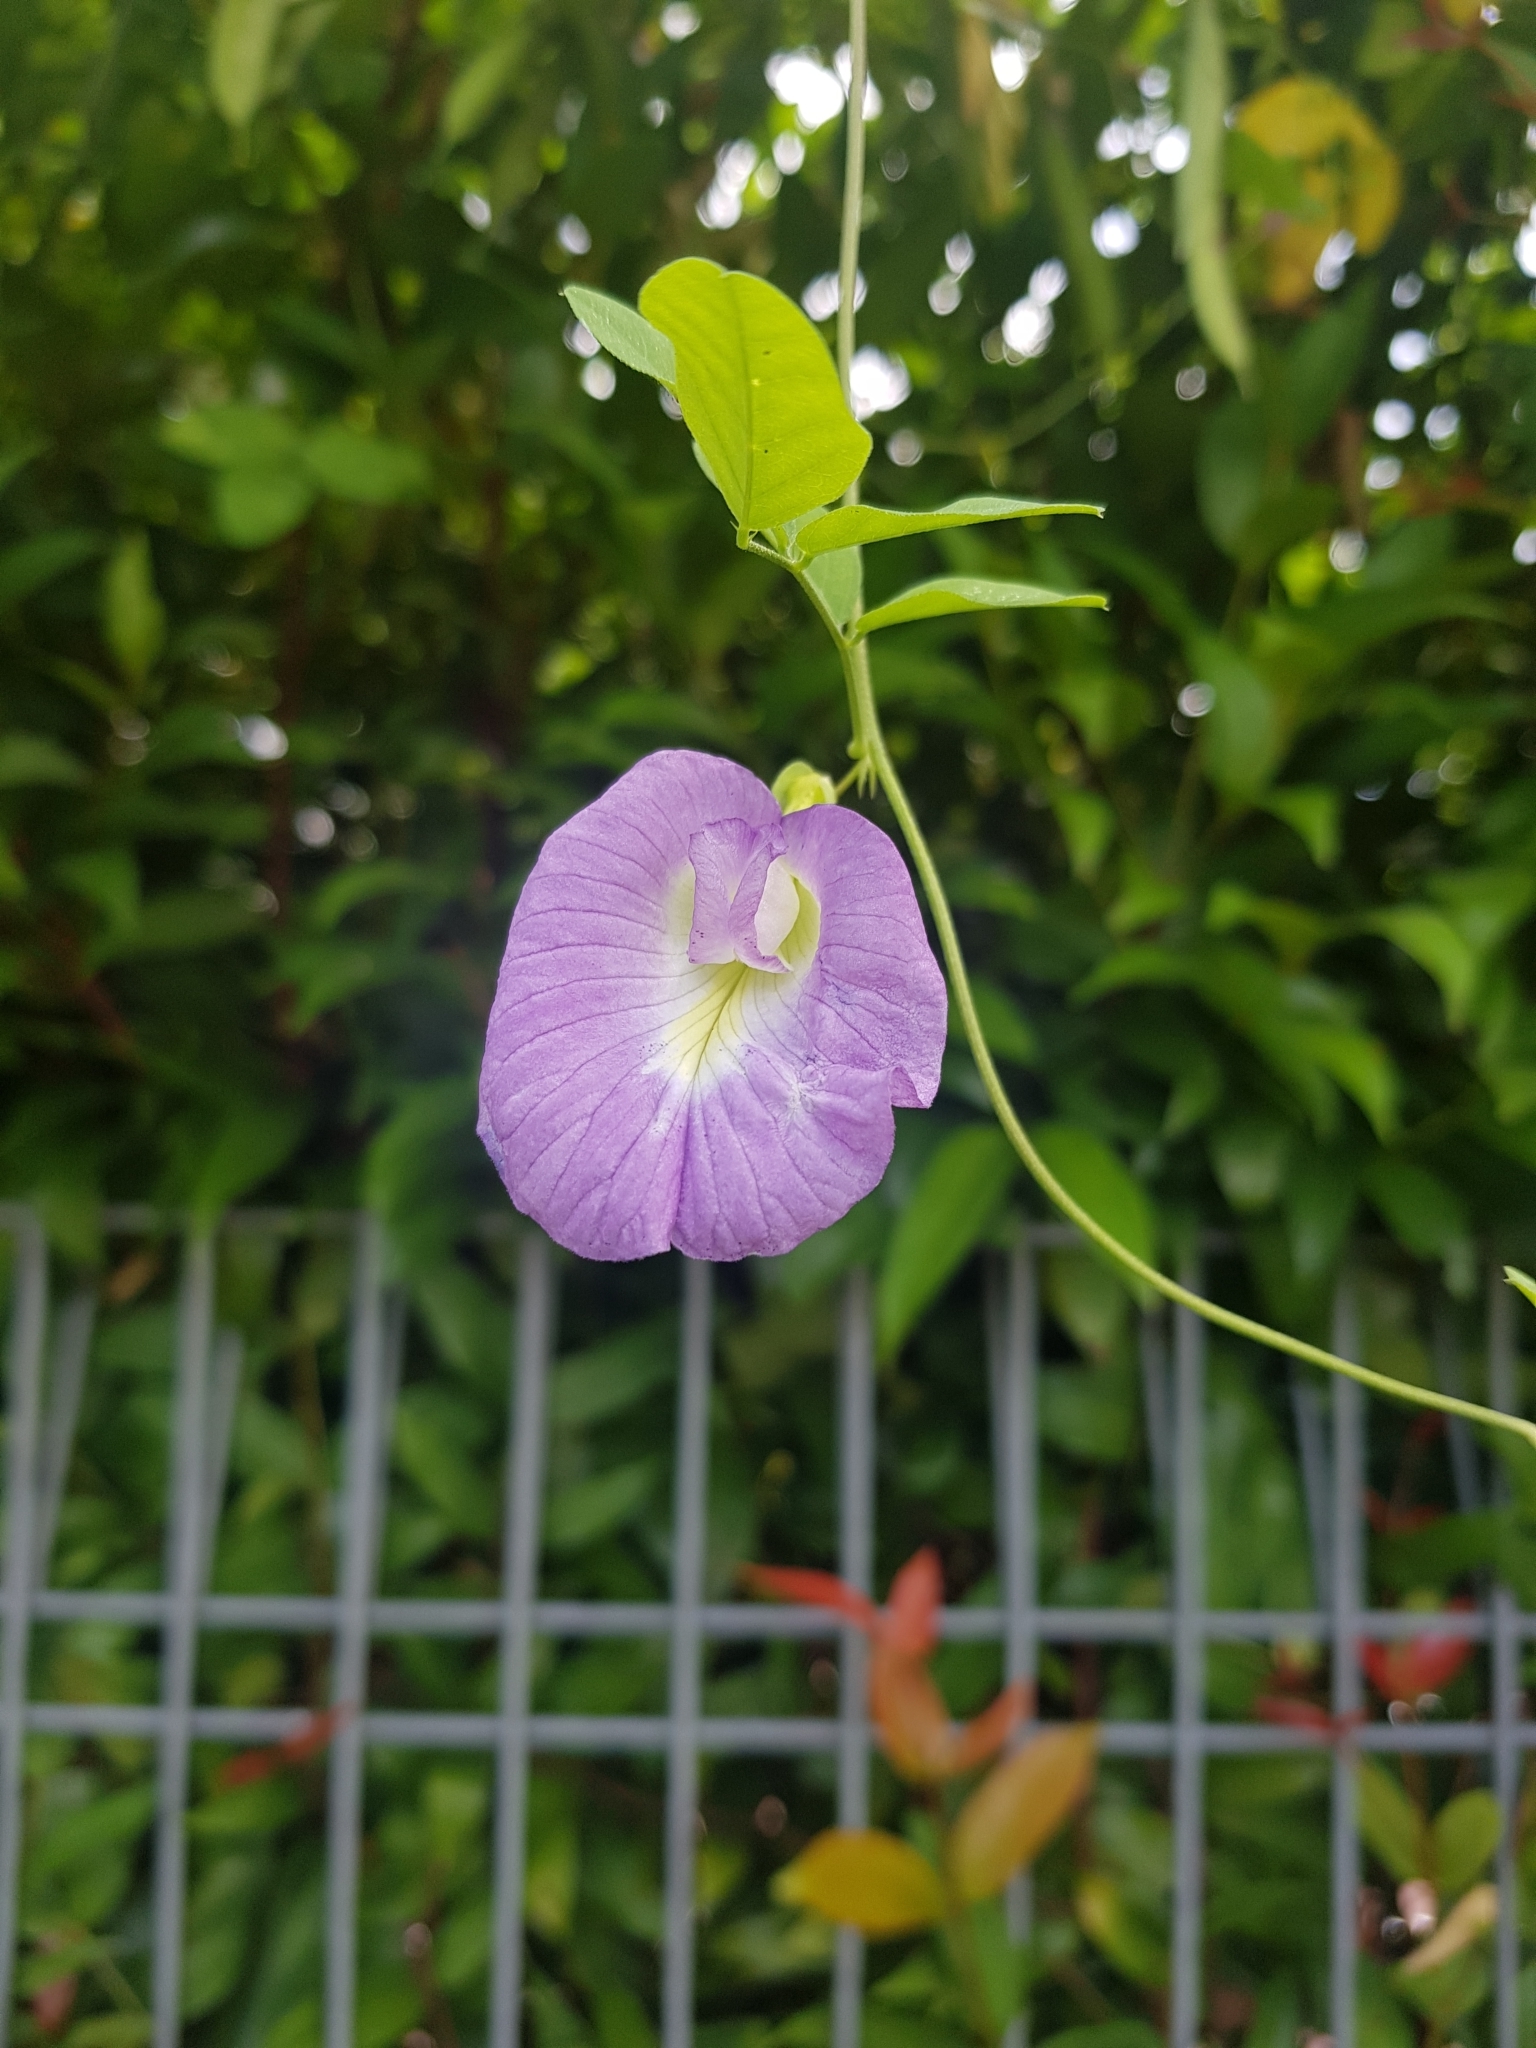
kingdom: Plantae
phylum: Tracheophyta
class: Magnoliopsida
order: Fabales
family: Fabaceae
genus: Clitoria
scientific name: Clitoria ternatea
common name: Asian pigeonwings
